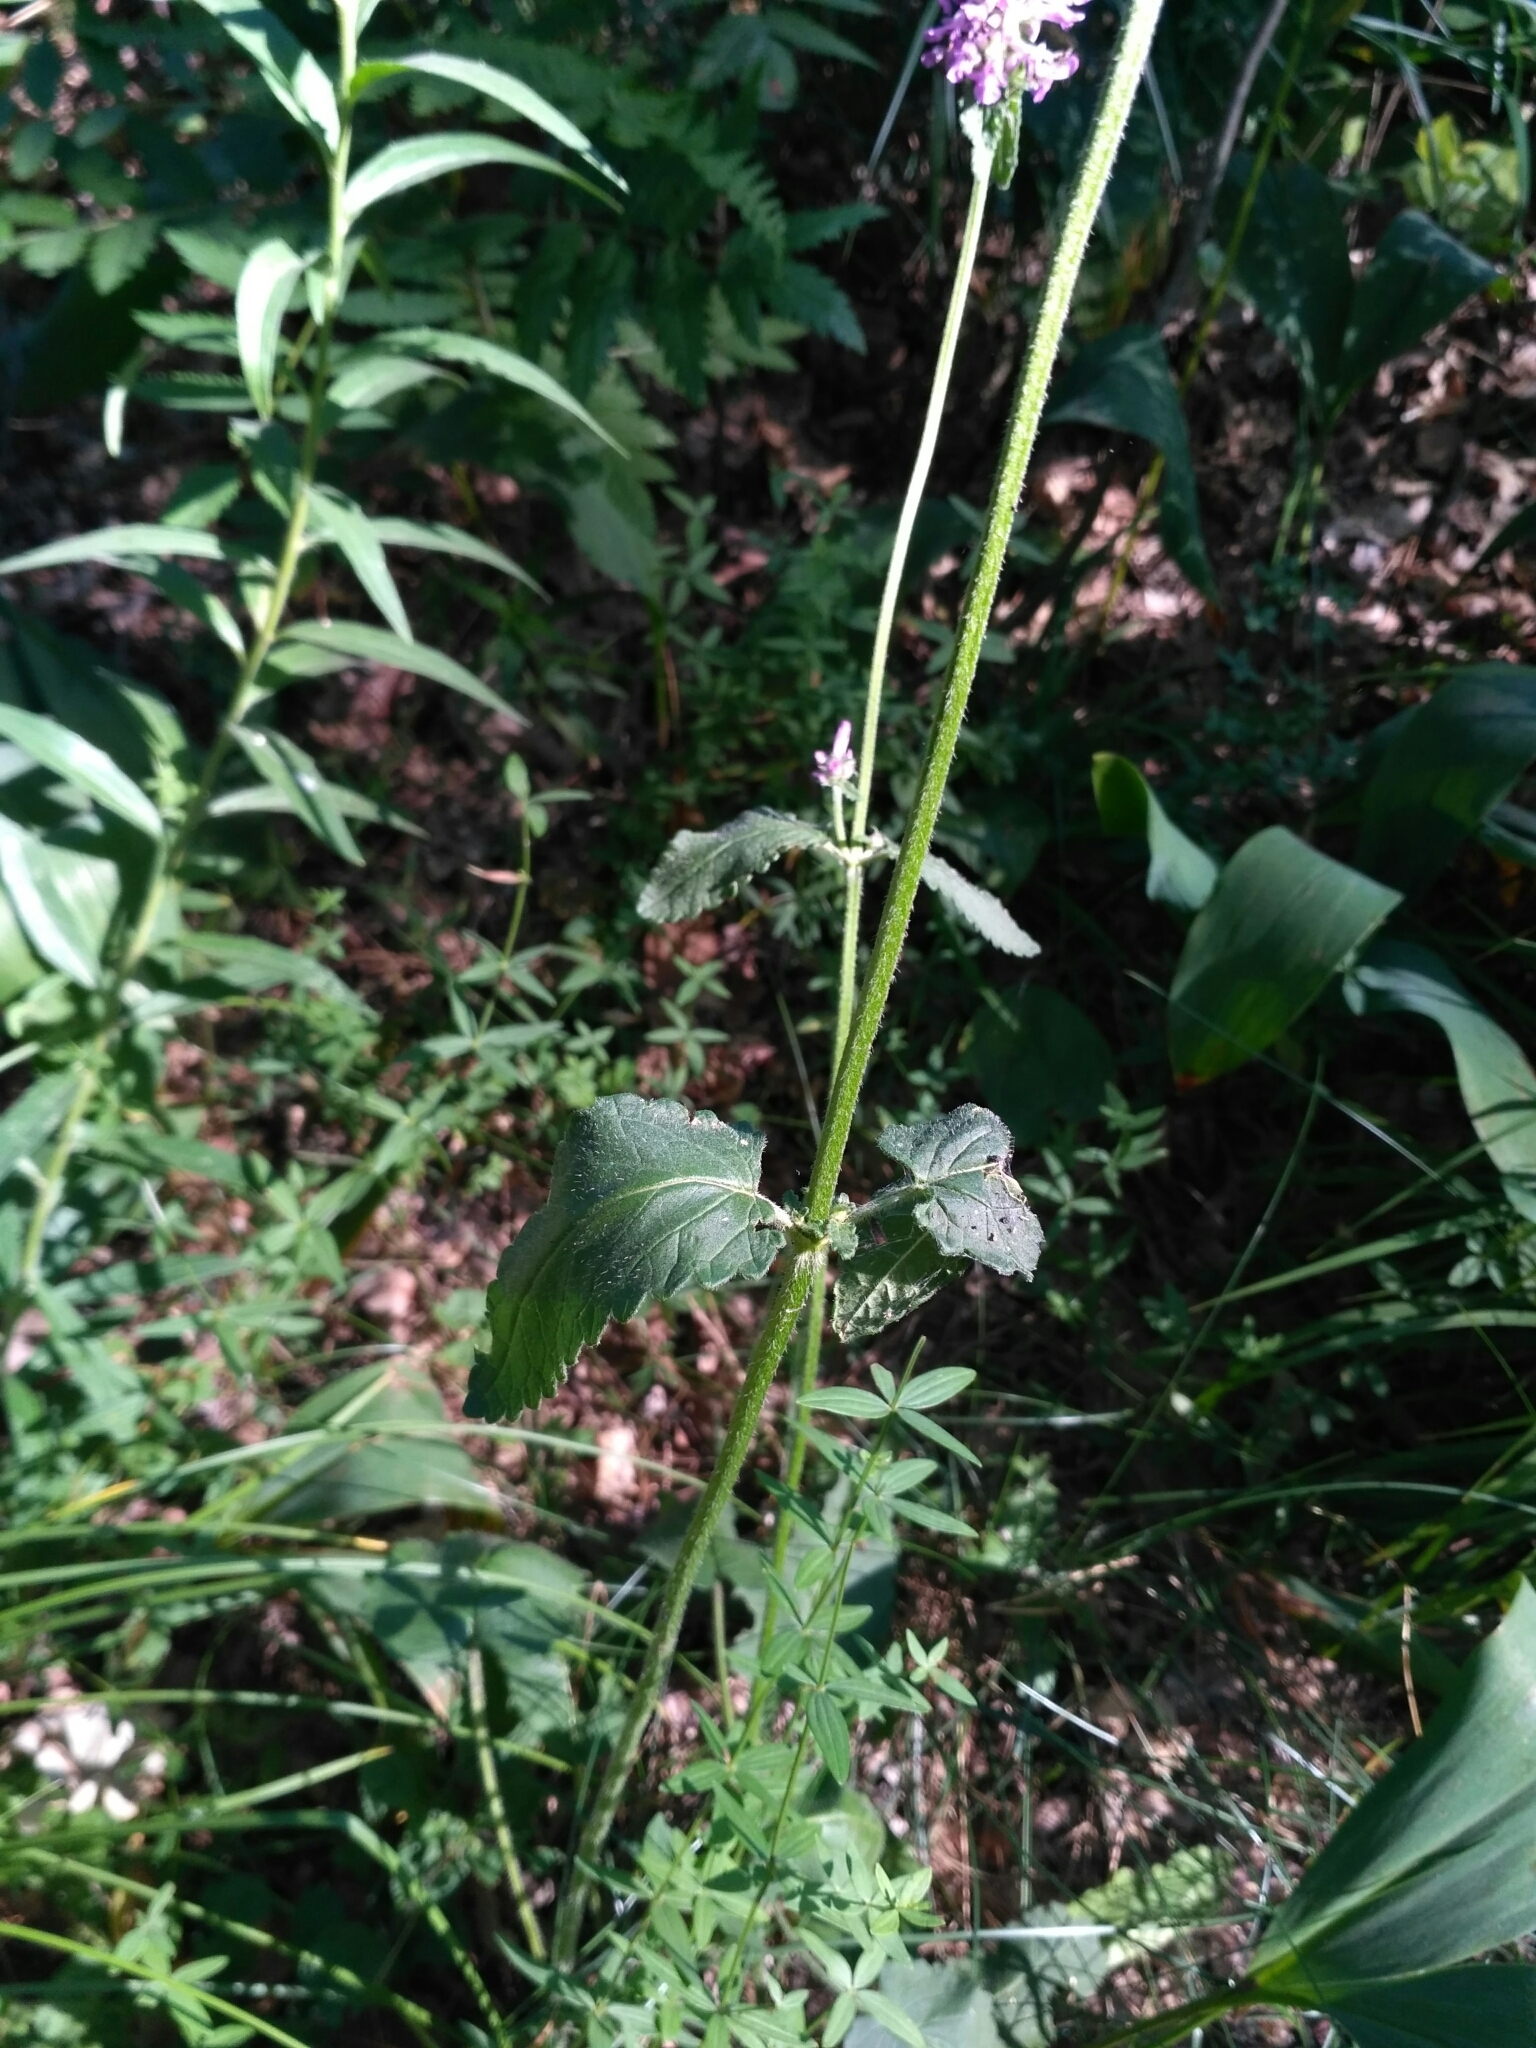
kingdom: Plantae
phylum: Tracheophyta
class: Magnoliopsida
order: Lamiales
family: Lamiaceae
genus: Betonica
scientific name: Betonica officinalis
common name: Bishop's-wort
